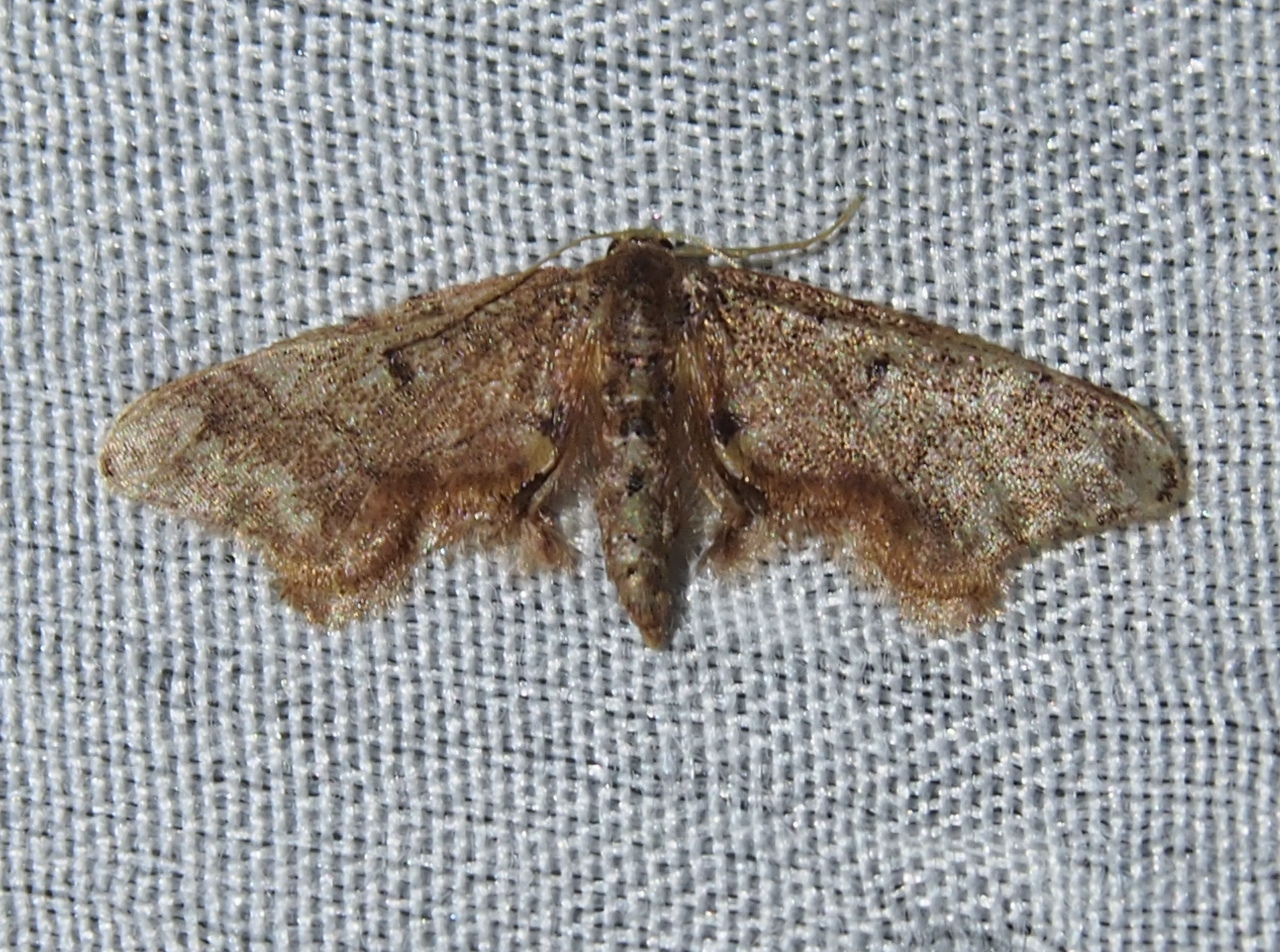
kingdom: Animalia
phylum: Arthropoda
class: Insecta
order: Lepidoptera
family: Geometridae
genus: Idaea
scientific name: Idaea balmata
